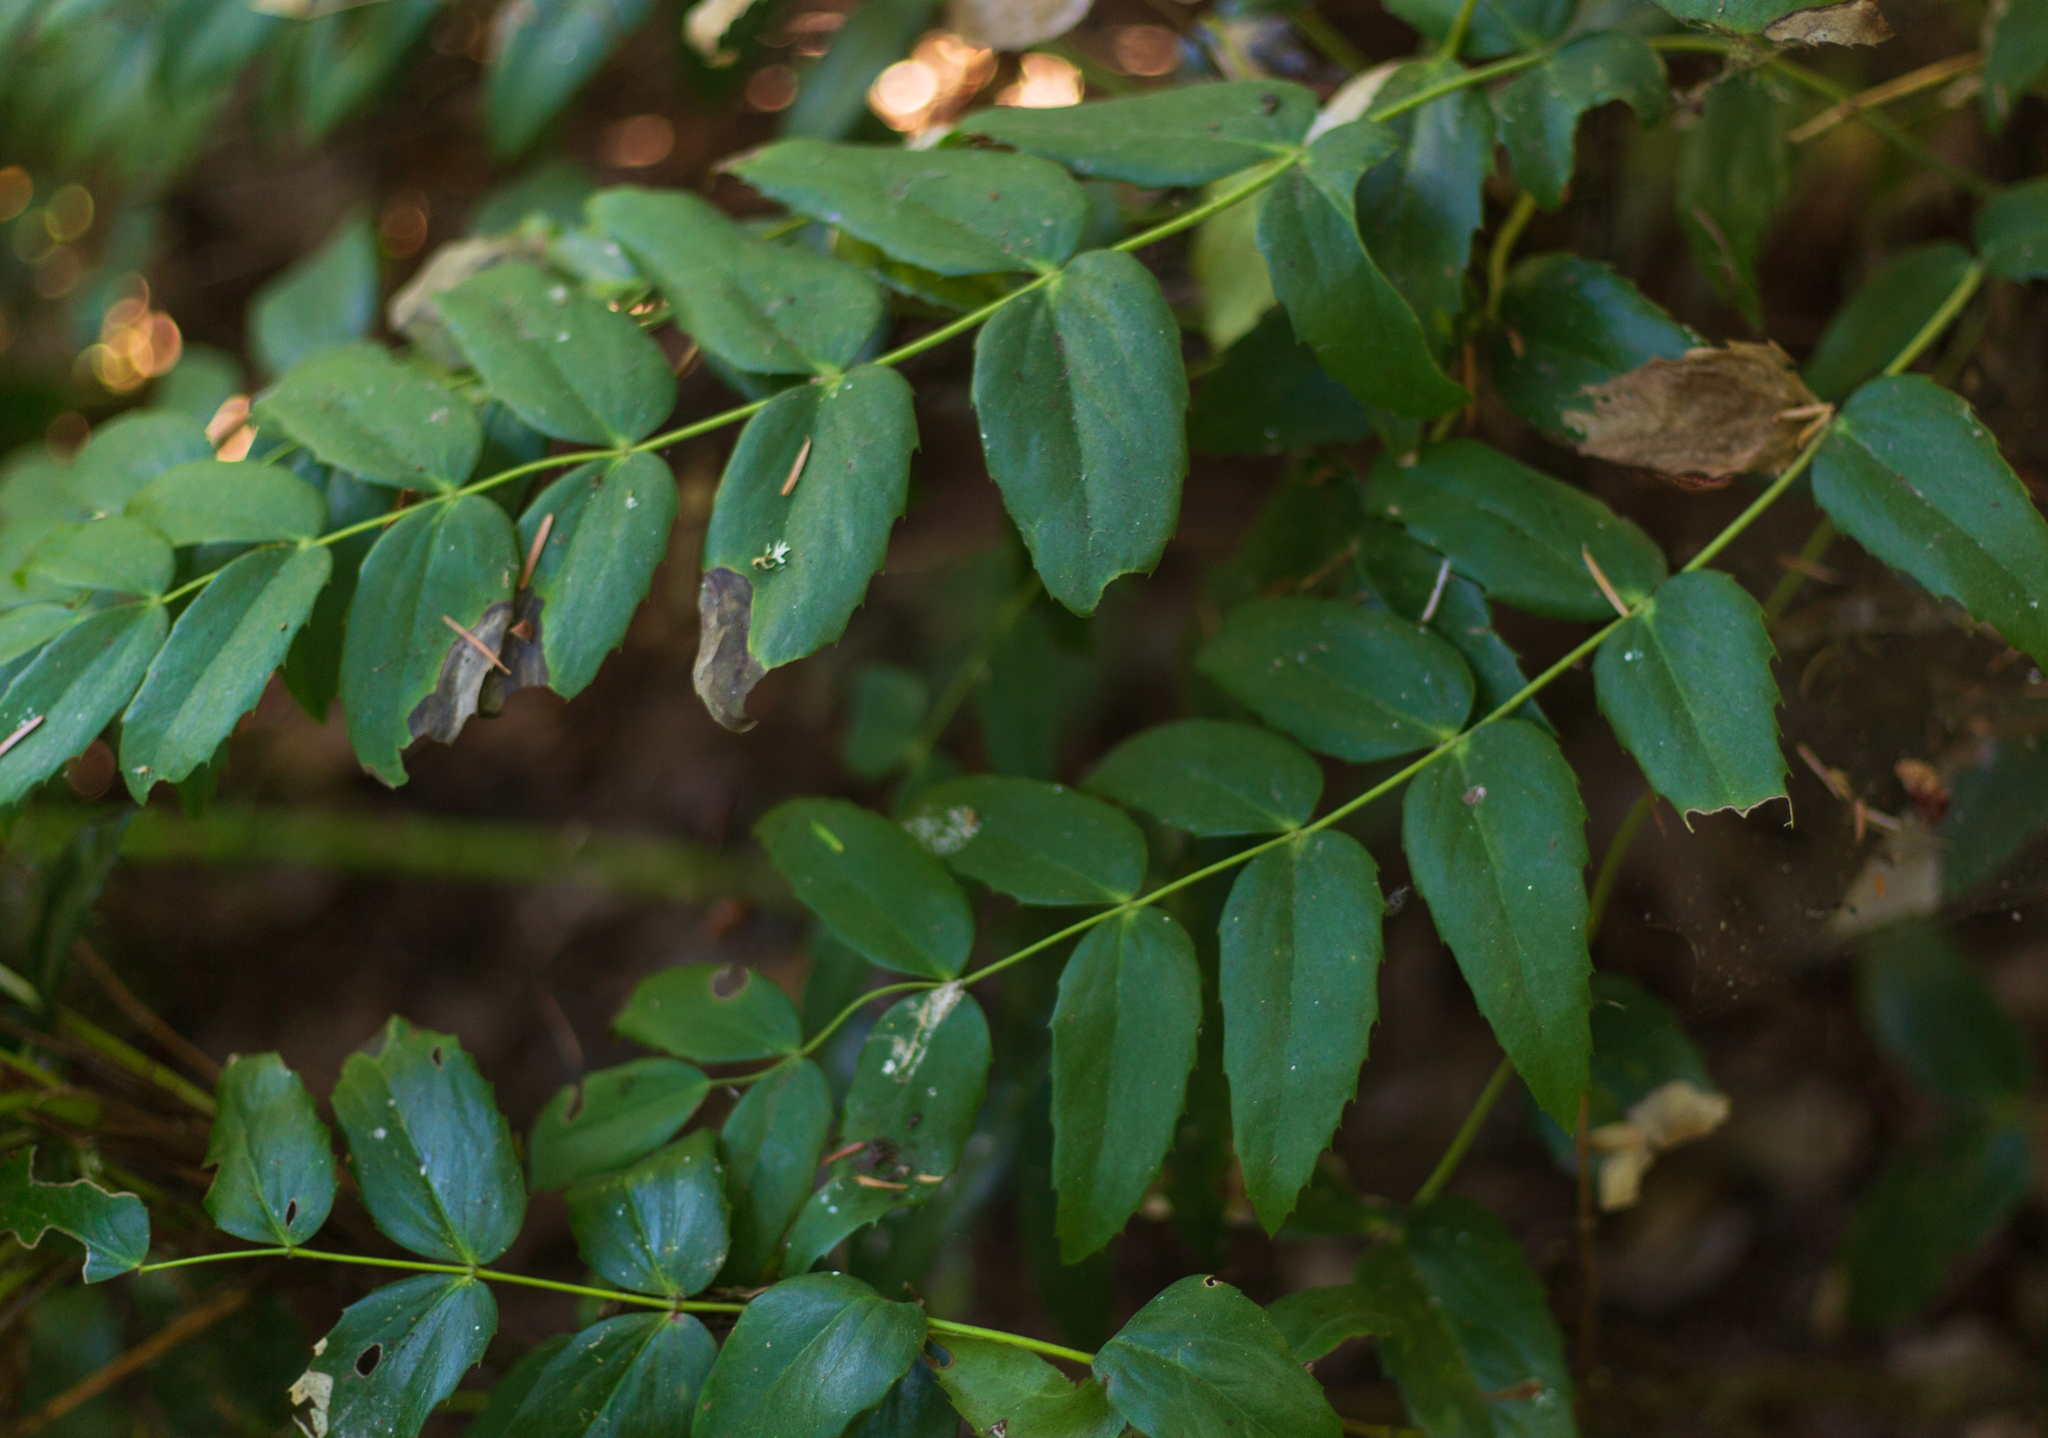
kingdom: Plantae
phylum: Tracheophyta
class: Magnoliopsida
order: Ranunculales
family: Berberidaceae
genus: Mahonia
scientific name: Mahonia nervosa
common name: Cascade oregon-grape
